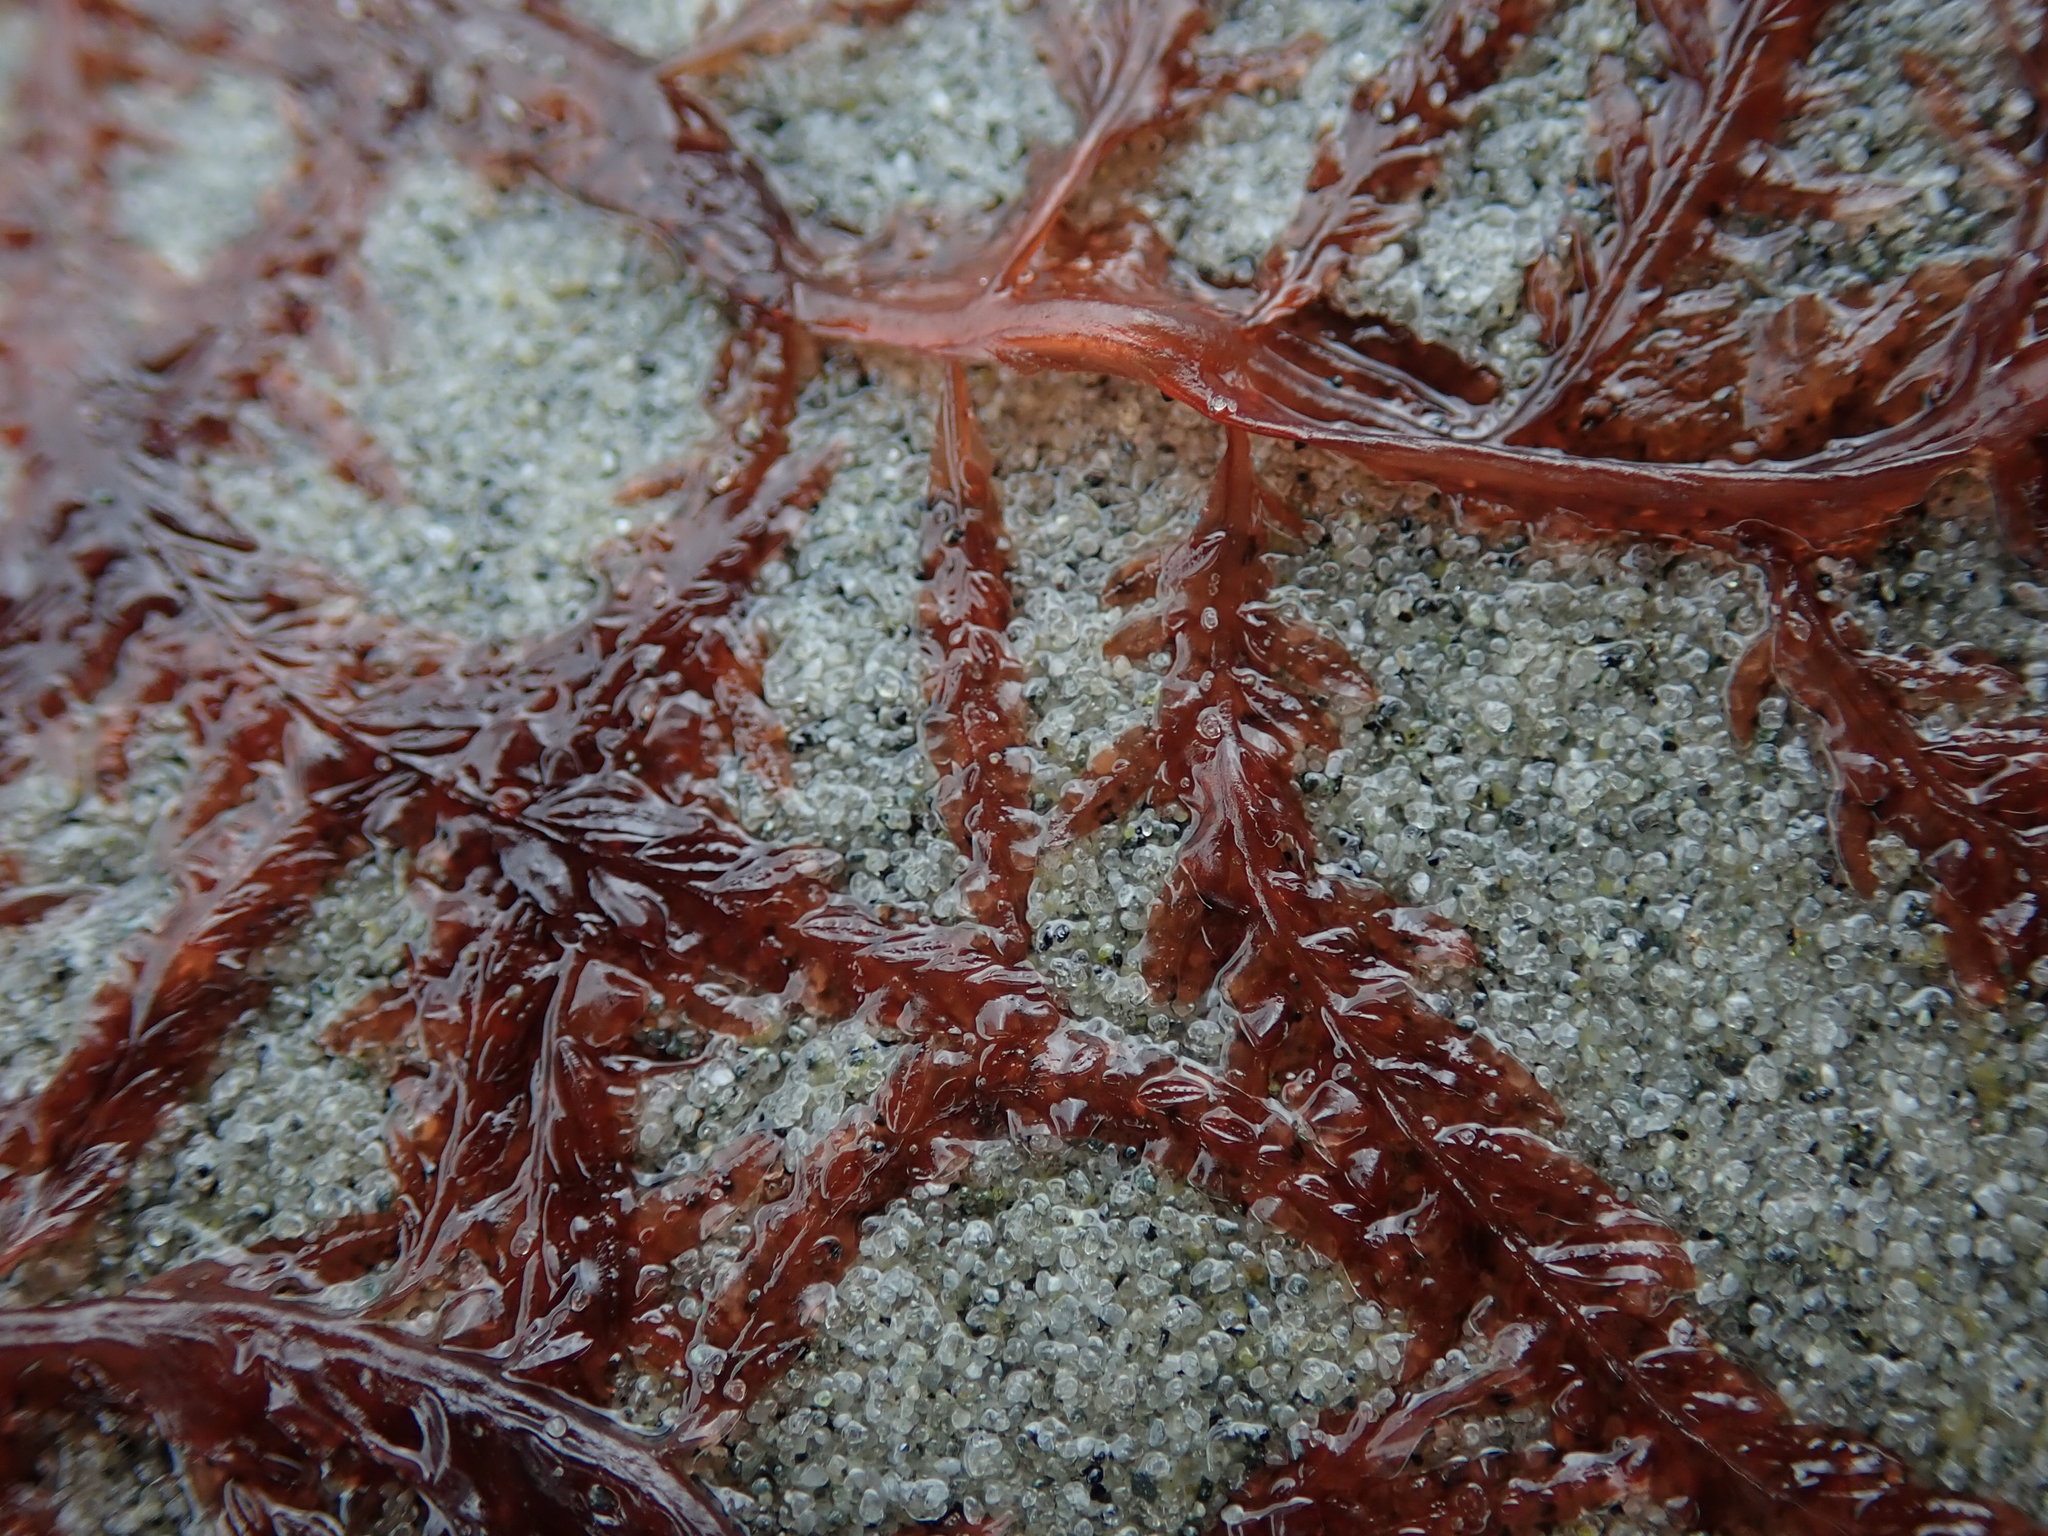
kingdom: Plantae
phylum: Rhodophyta
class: Florideophyceae
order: Ceramiales
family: Delesseriaceae
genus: Cumathamnion
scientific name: Cumathamnion decipiens
